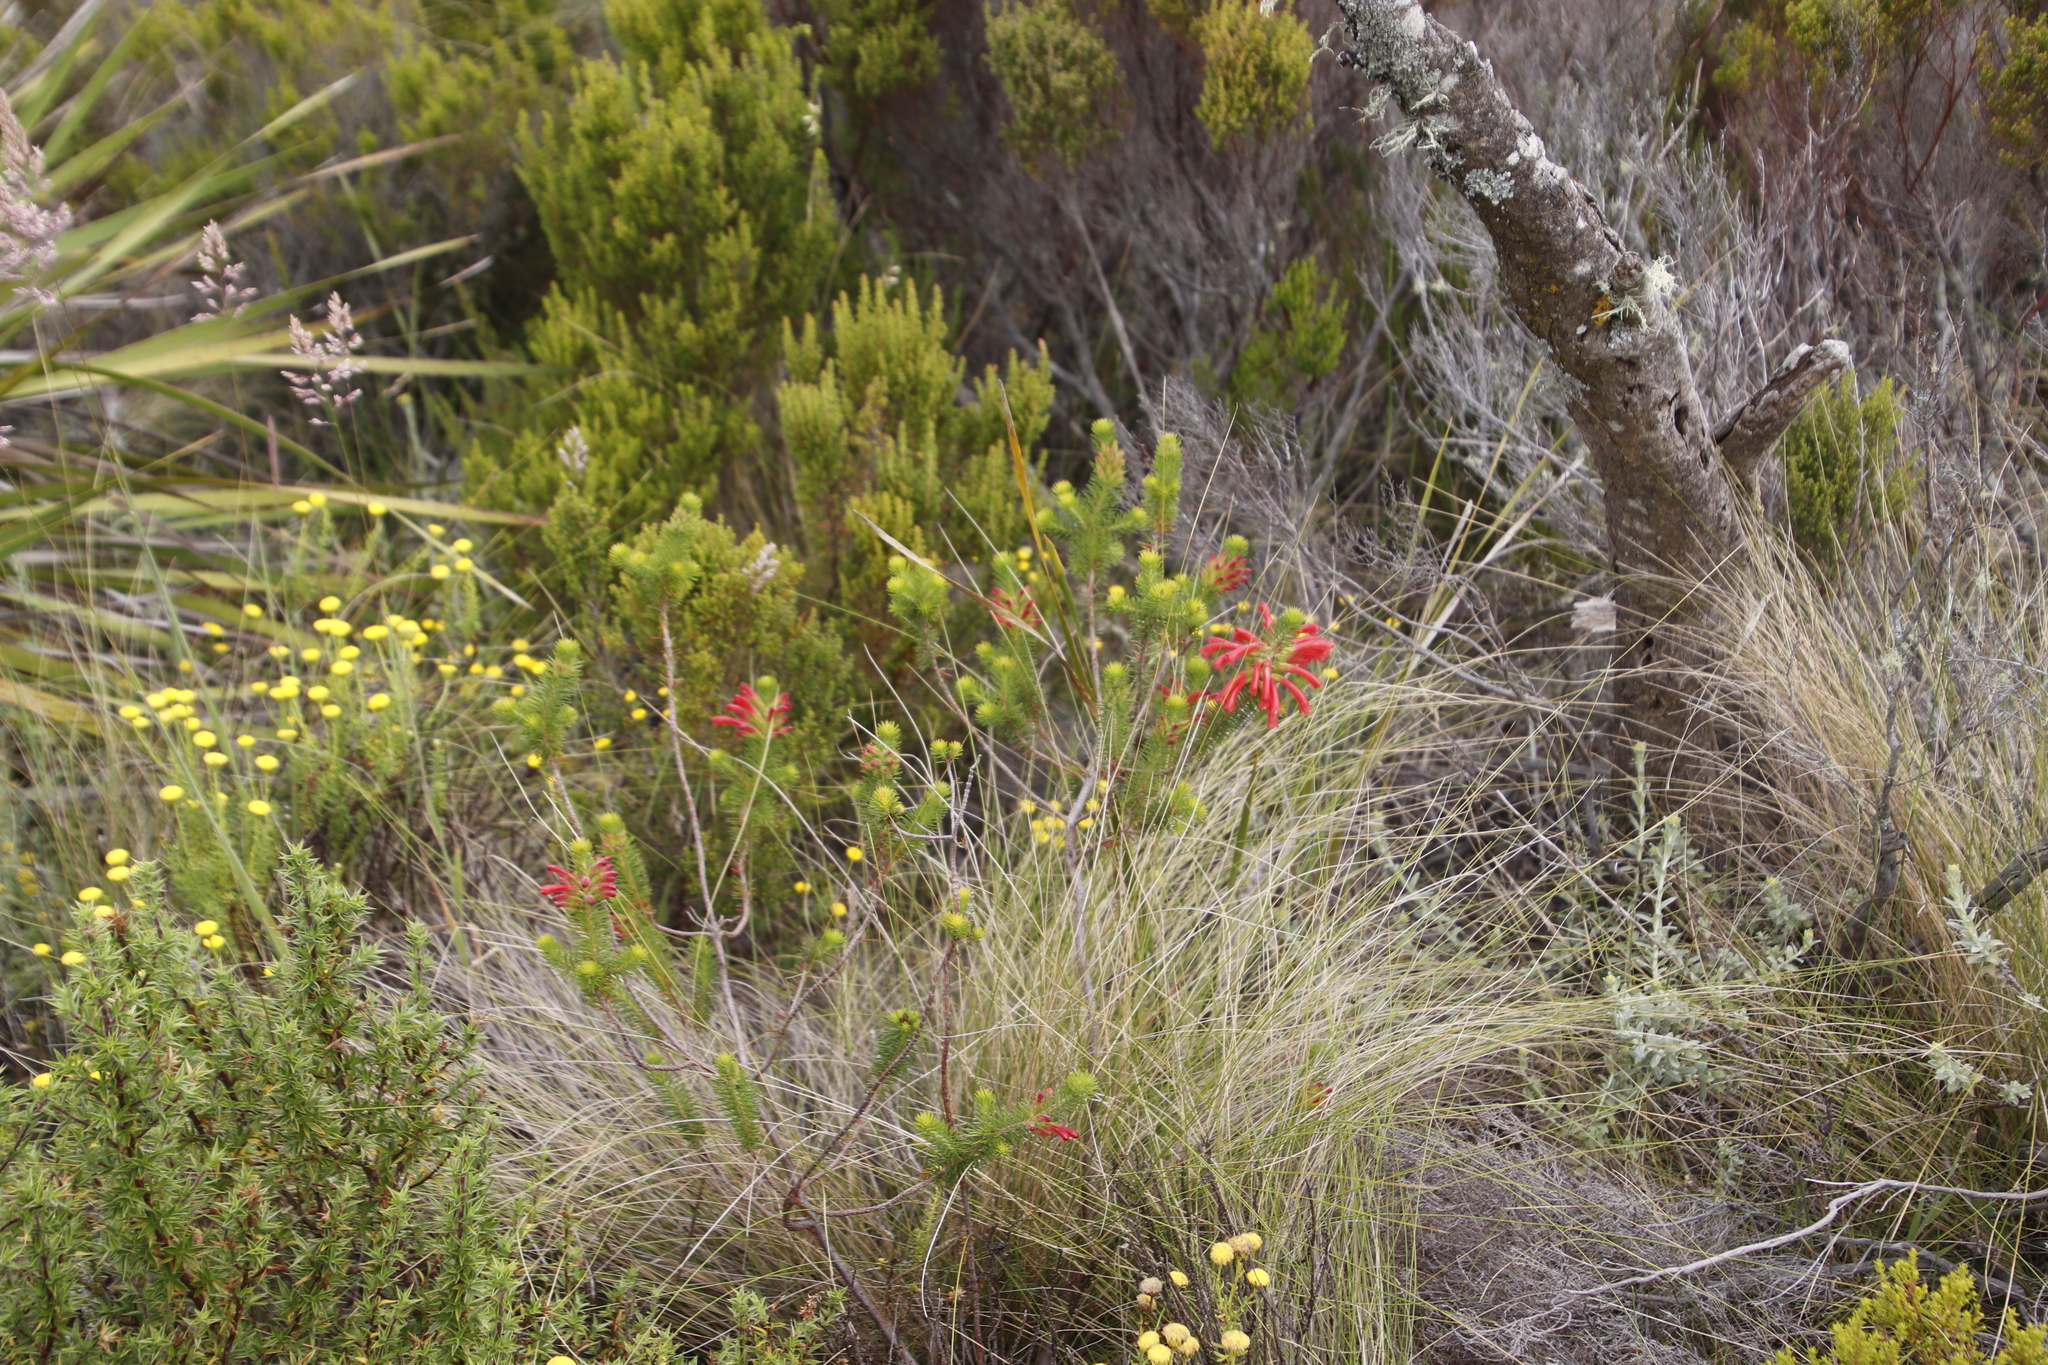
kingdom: Plantae
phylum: Tracheophyta
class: Magnoliopsida
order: Ericales
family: Ericaceae
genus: Erica
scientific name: Erica abietina
